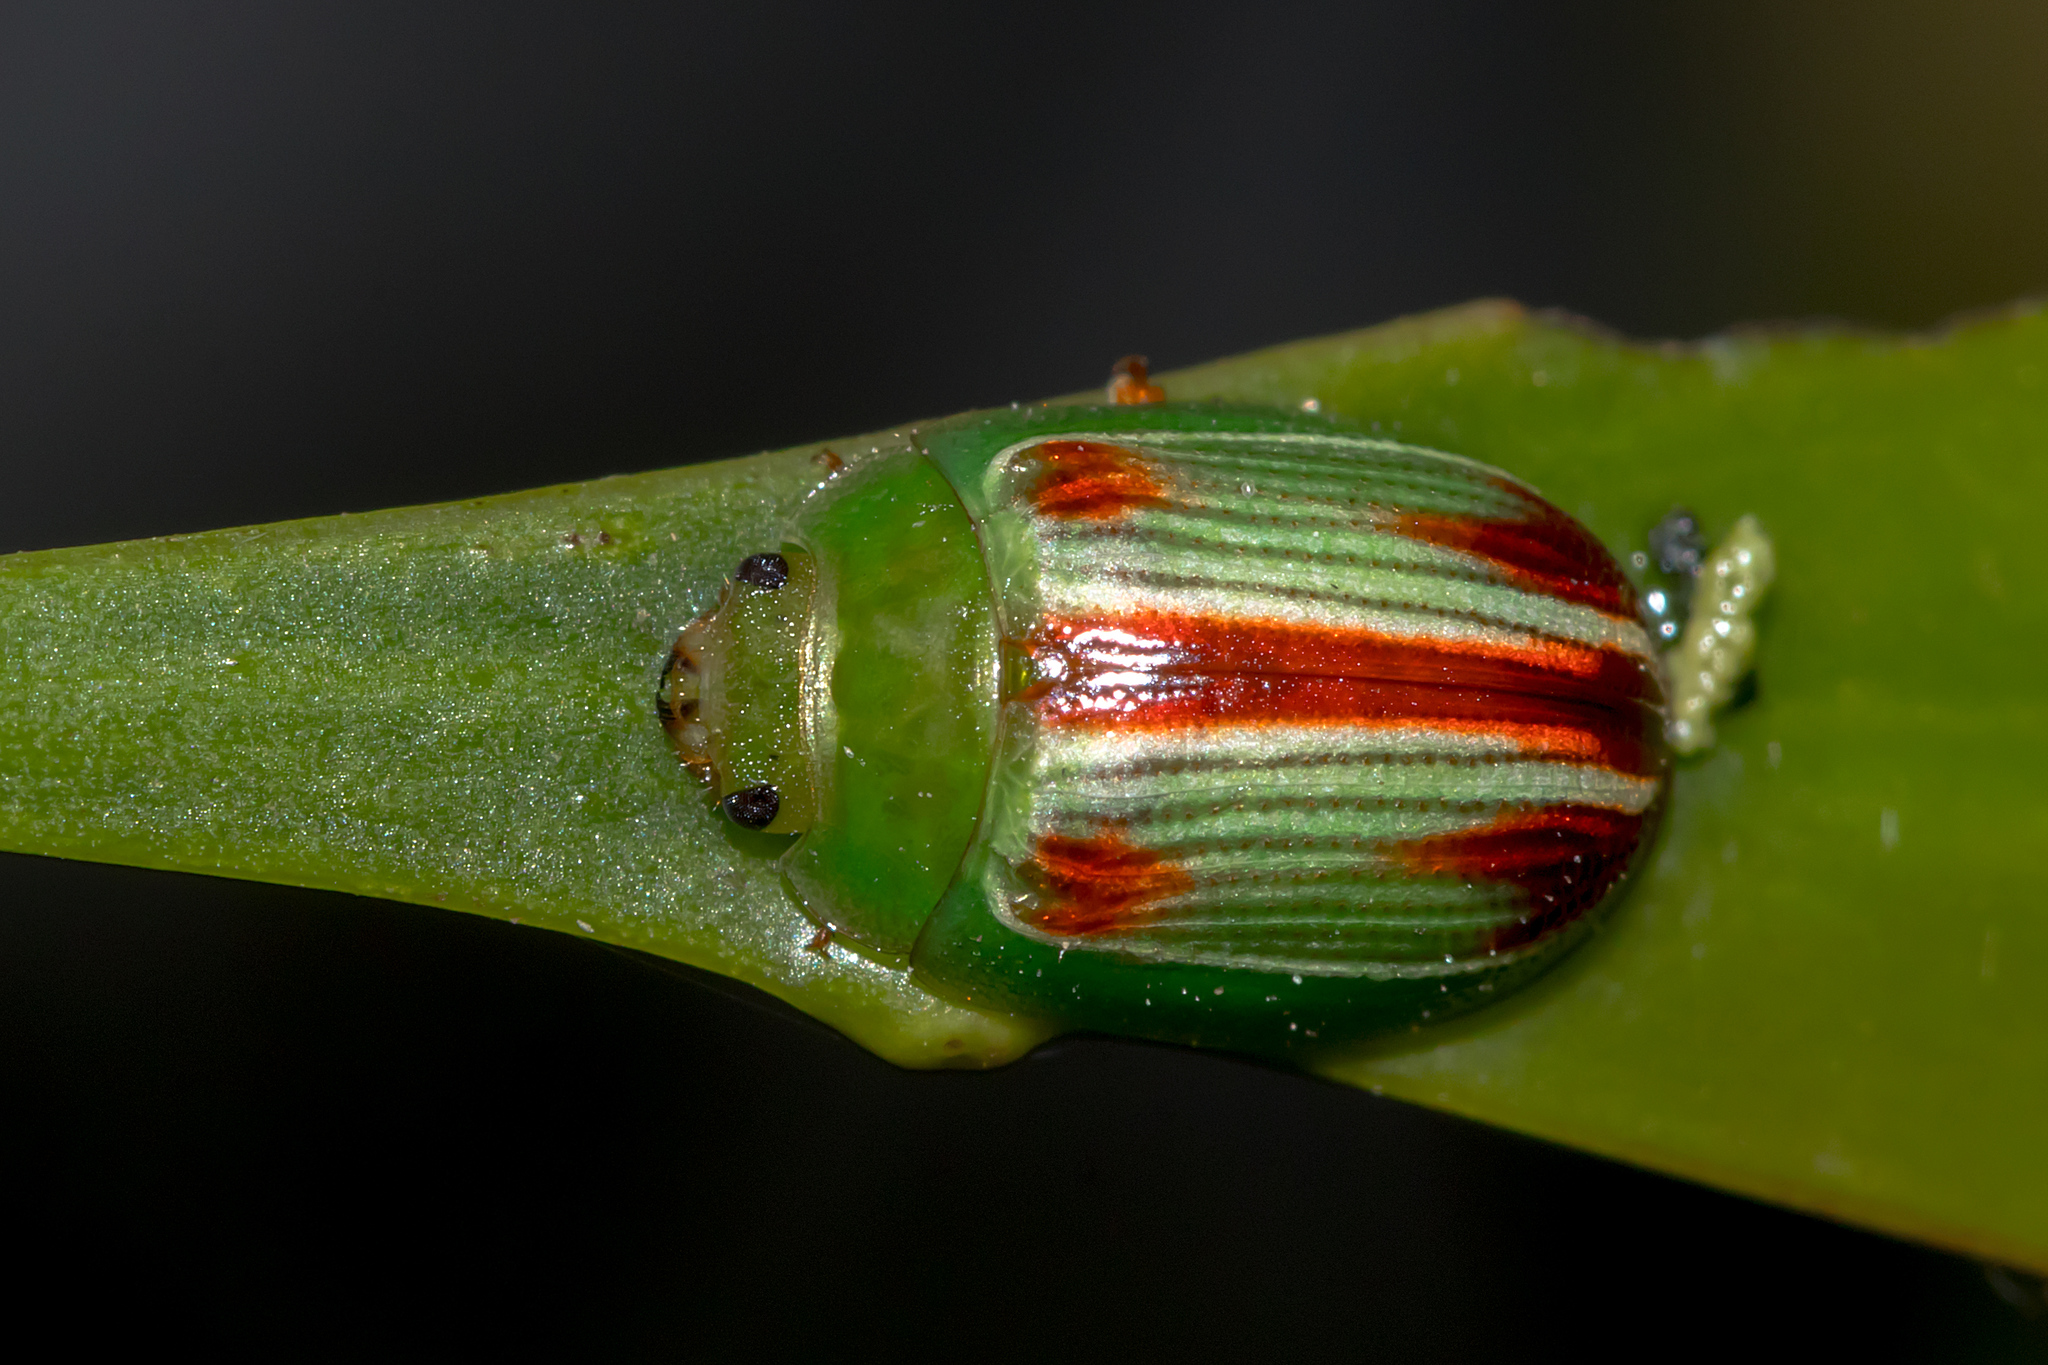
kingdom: Animalia
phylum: Arthropoda
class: Insecta
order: Coleoptera
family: Chrysomelidae
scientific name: Chrysomelidae
